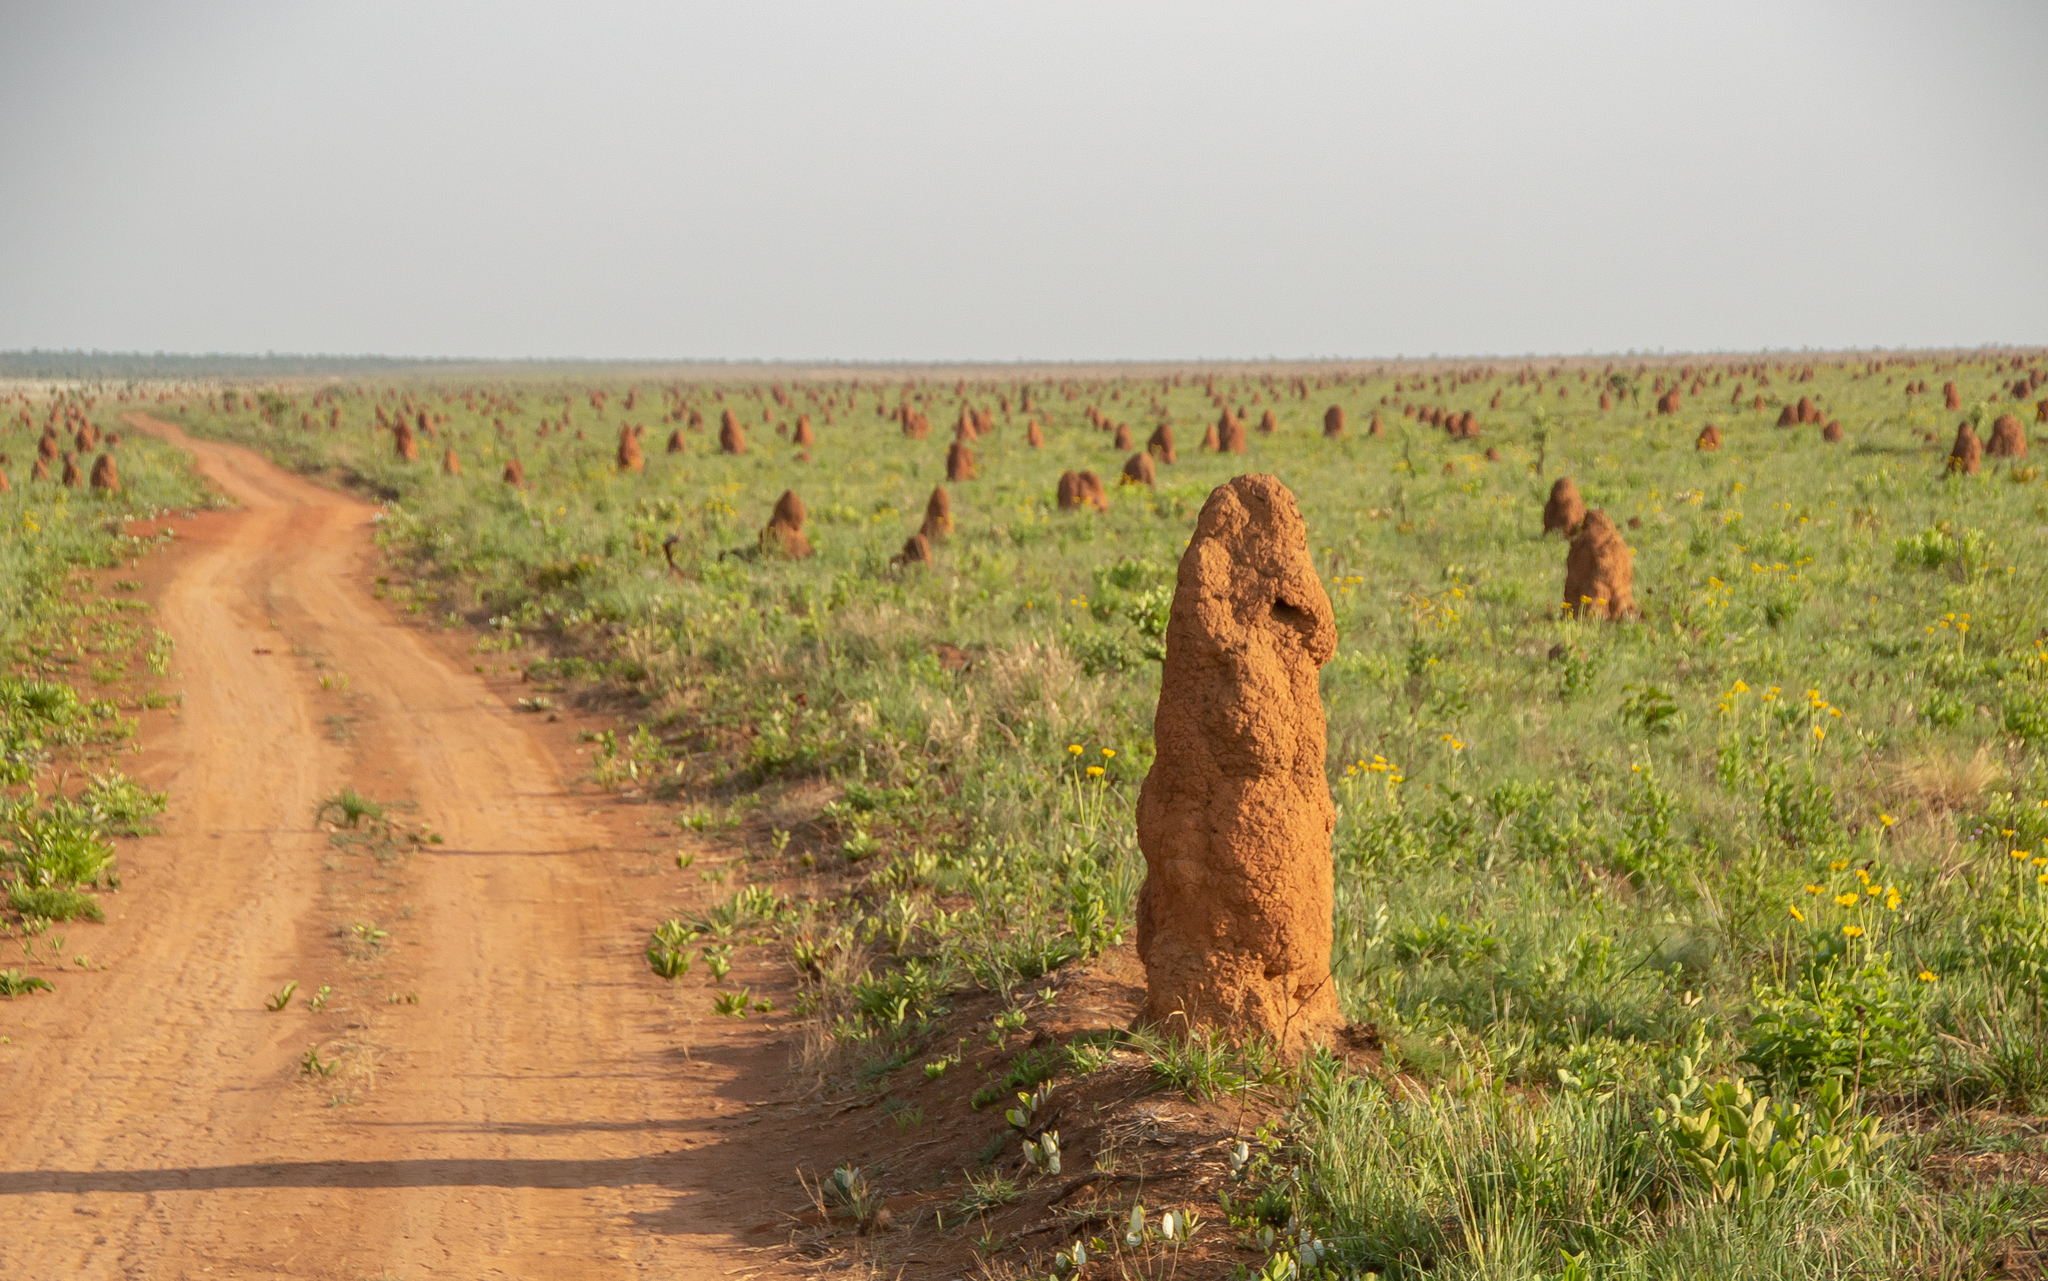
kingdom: Animalia
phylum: Arthropoda
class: Insecta
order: Blattodea
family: Termitidae
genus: Cornitermes
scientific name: Cornitermes cumulans
